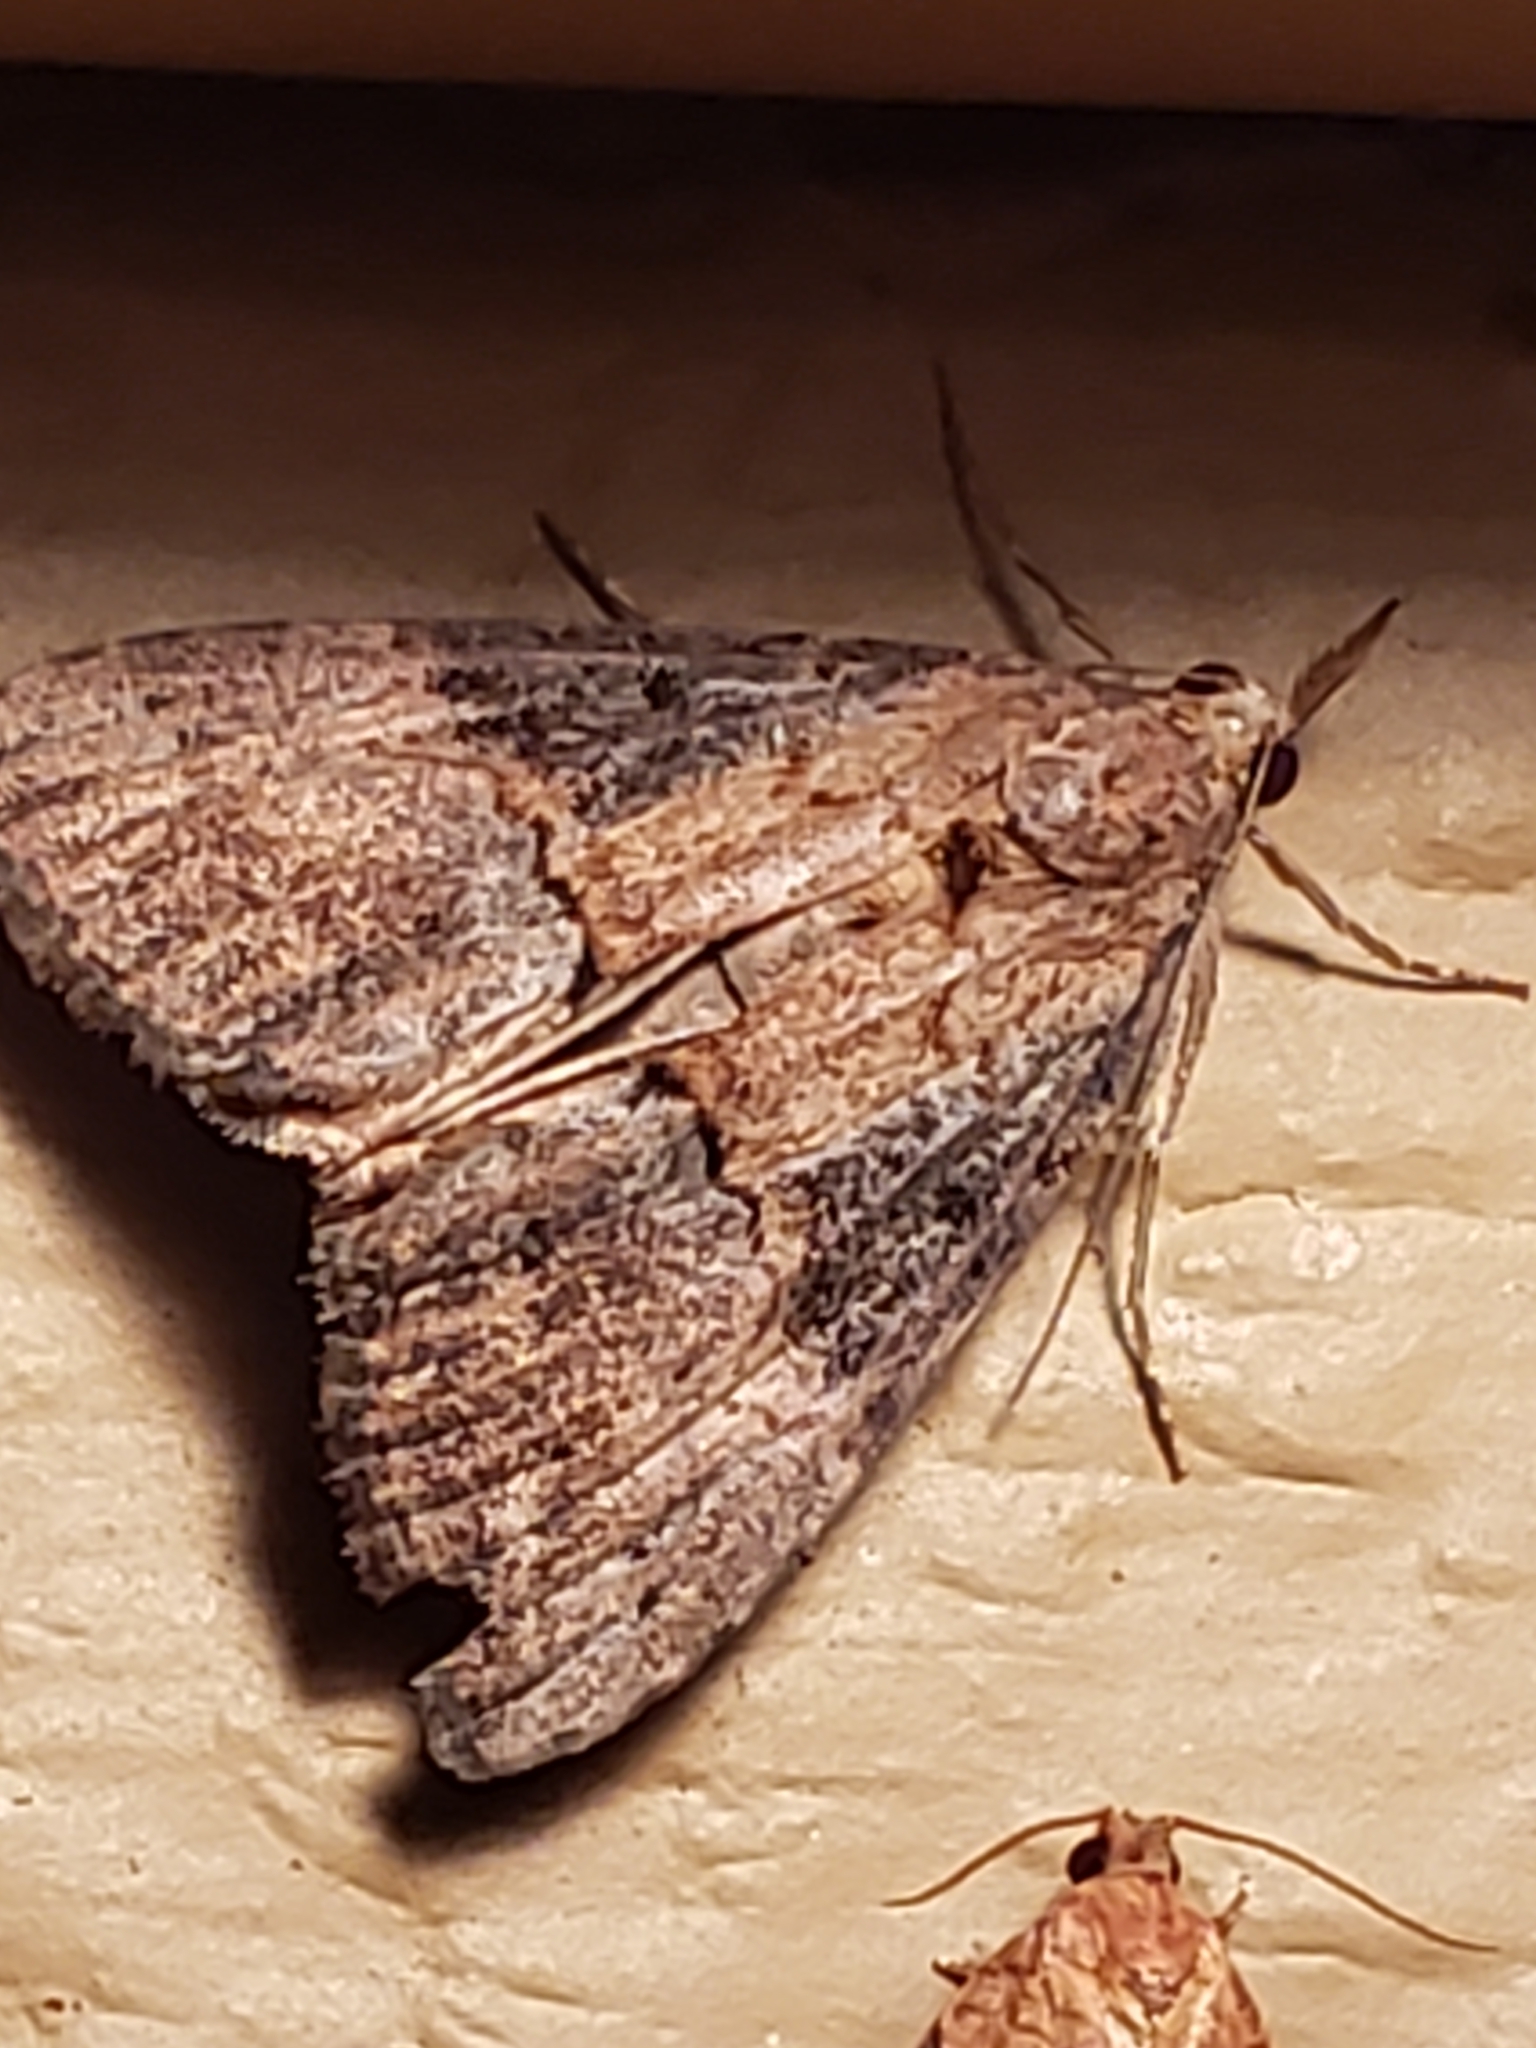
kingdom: Animalia
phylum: Arthropoda
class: Insecta
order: Lepidoptera
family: Erebidae
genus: Hypena
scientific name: Hypena scabra
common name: Green cloverworm
